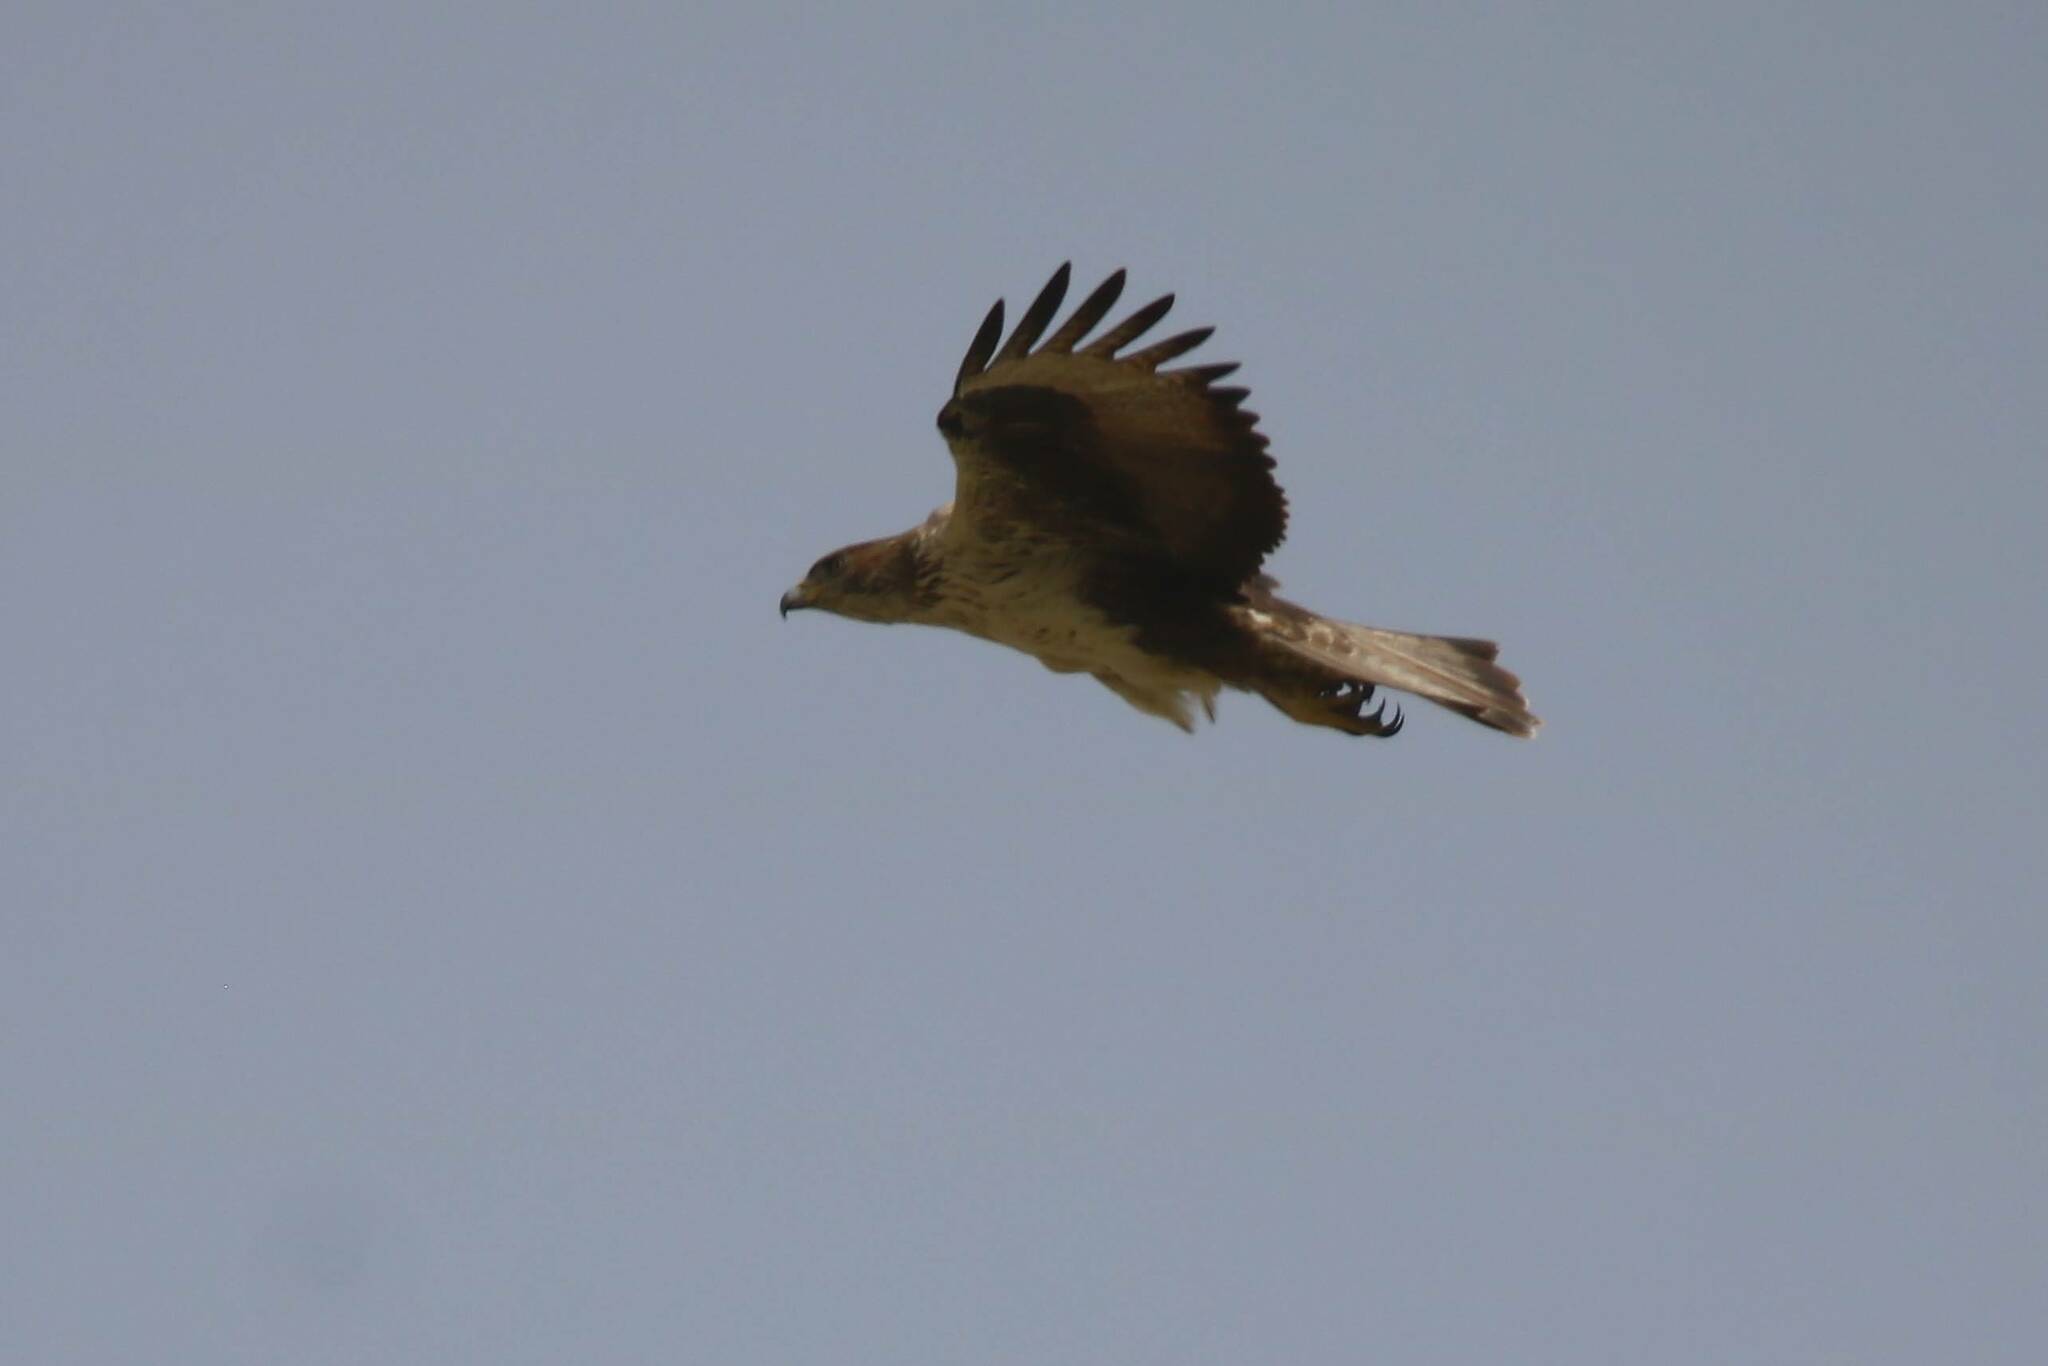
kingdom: Animalia
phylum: Chordata
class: Aves
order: Accipitriformes
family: Accipitridae
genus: Aquila
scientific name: Aquila fasciata
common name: Bonelli's eagle
